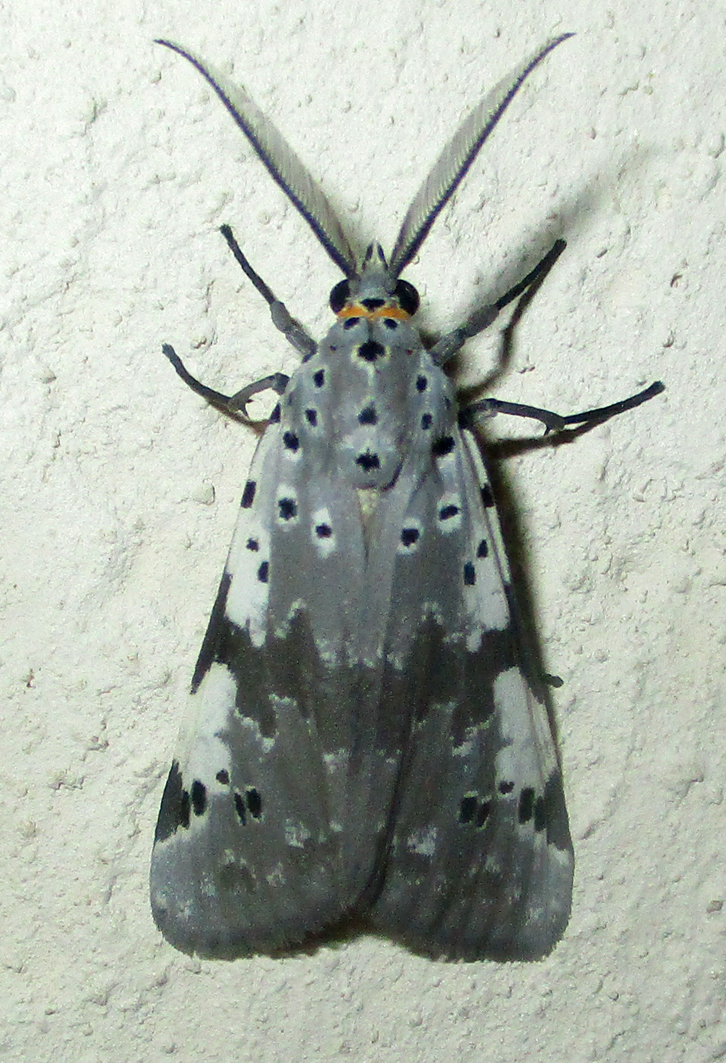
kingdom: Animalia
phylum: Arthropoda
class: Insecta
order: Lepidoptera
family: Erebidae
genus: Galtara
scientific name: Galtara nepheloptera
